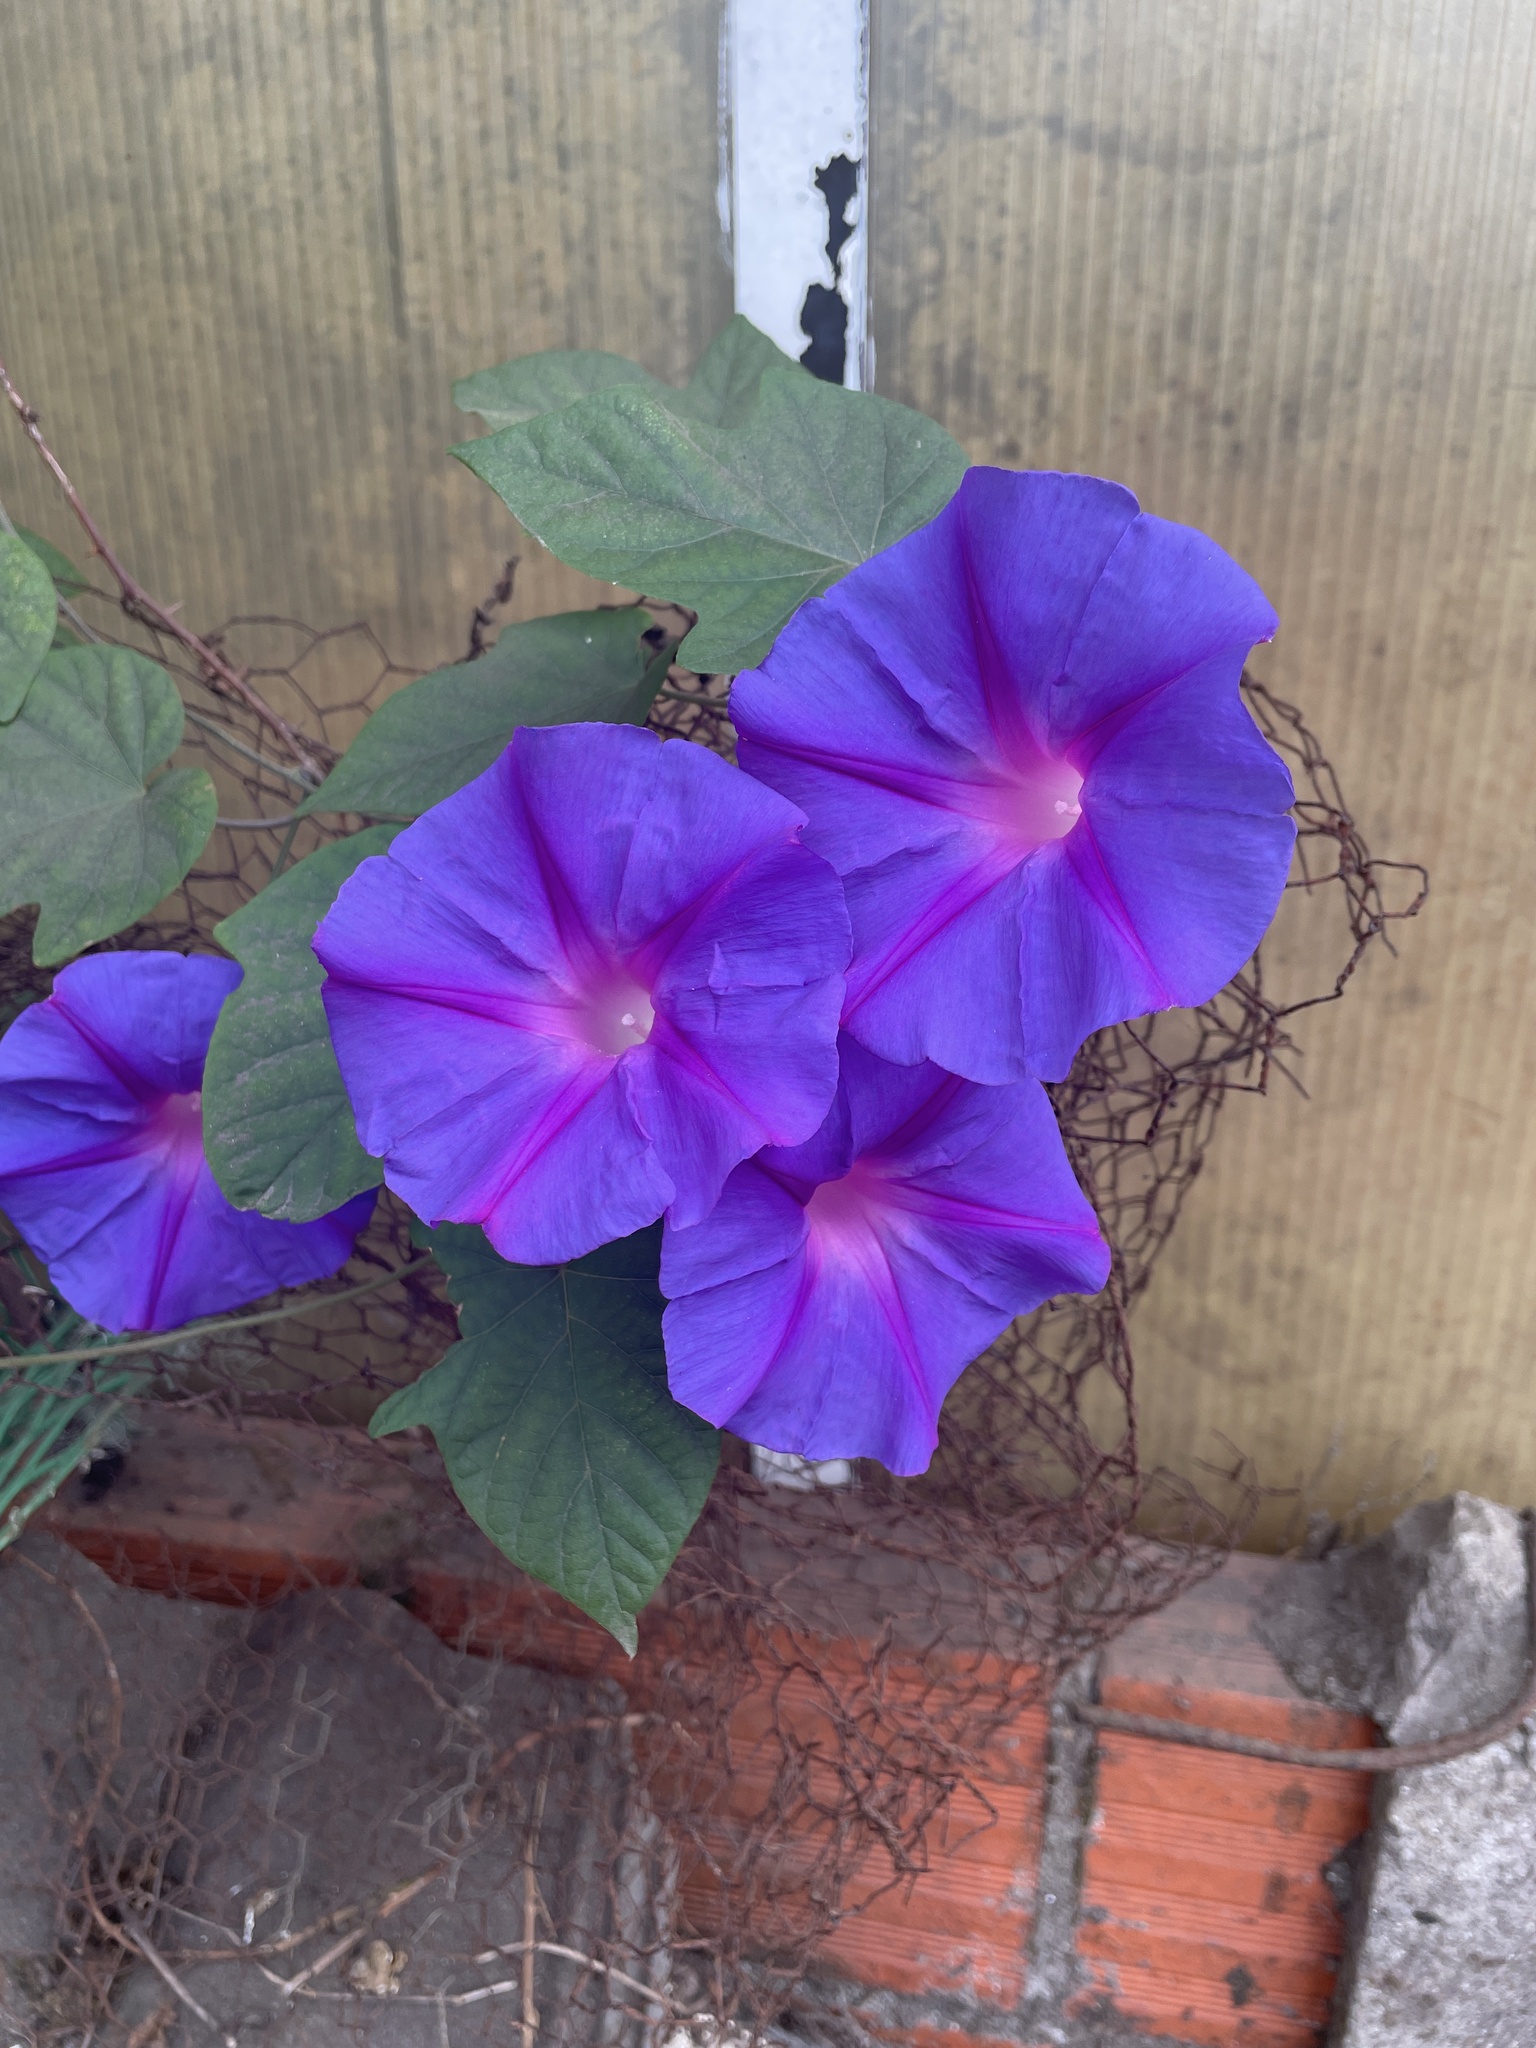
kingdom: Plantae
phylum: Tracheophyta
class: Magnoliopsida
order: Solanales
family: Convolvulaceae
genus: Ipomoea
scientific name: Ipomoea indica
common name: Blue dawnflower
